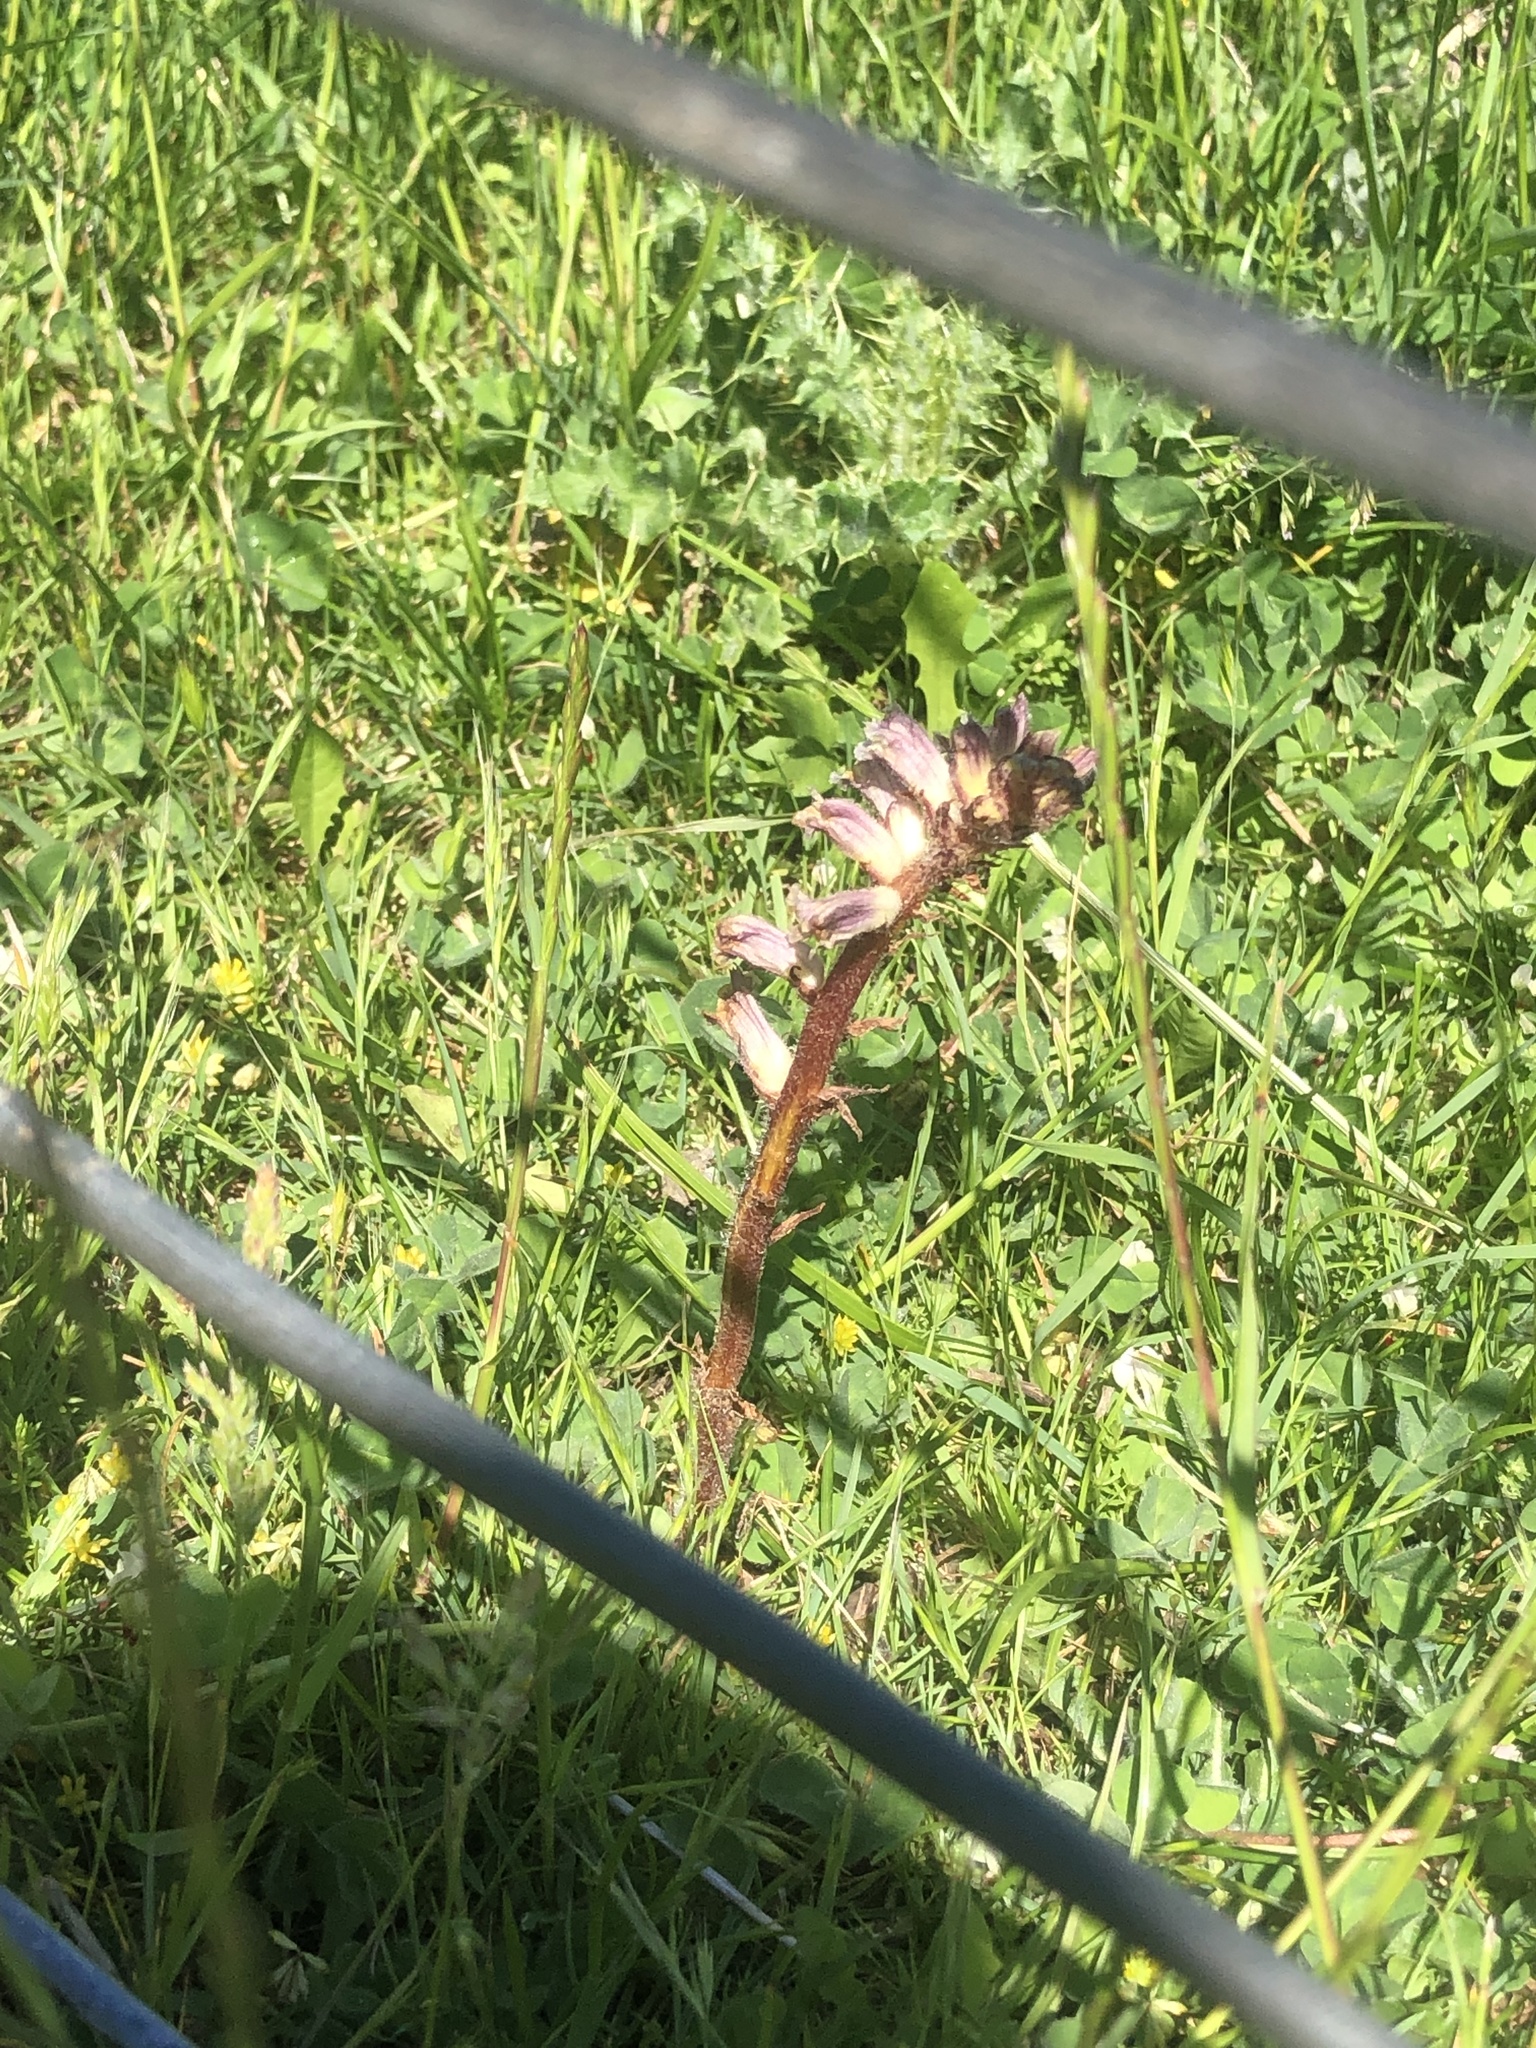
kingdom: Plantae
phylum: Tracheophyta
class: Magnoliopsida
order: Lamiales
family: Orobanchaceae
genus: Orobanche
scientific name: Orobanche minor
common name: Common broomrape
